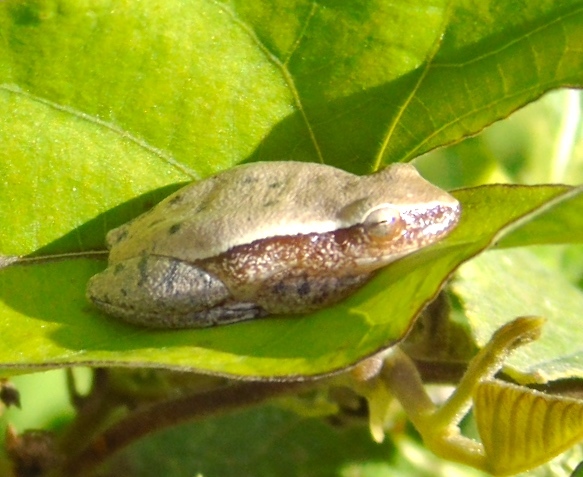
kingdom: Animalia
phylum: Chordata
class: Amphibia
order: Anura
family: Hylidae
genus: Tlalocohyla
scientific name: Tlalocohyla smithii
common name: Dwarf mexican treefrog
